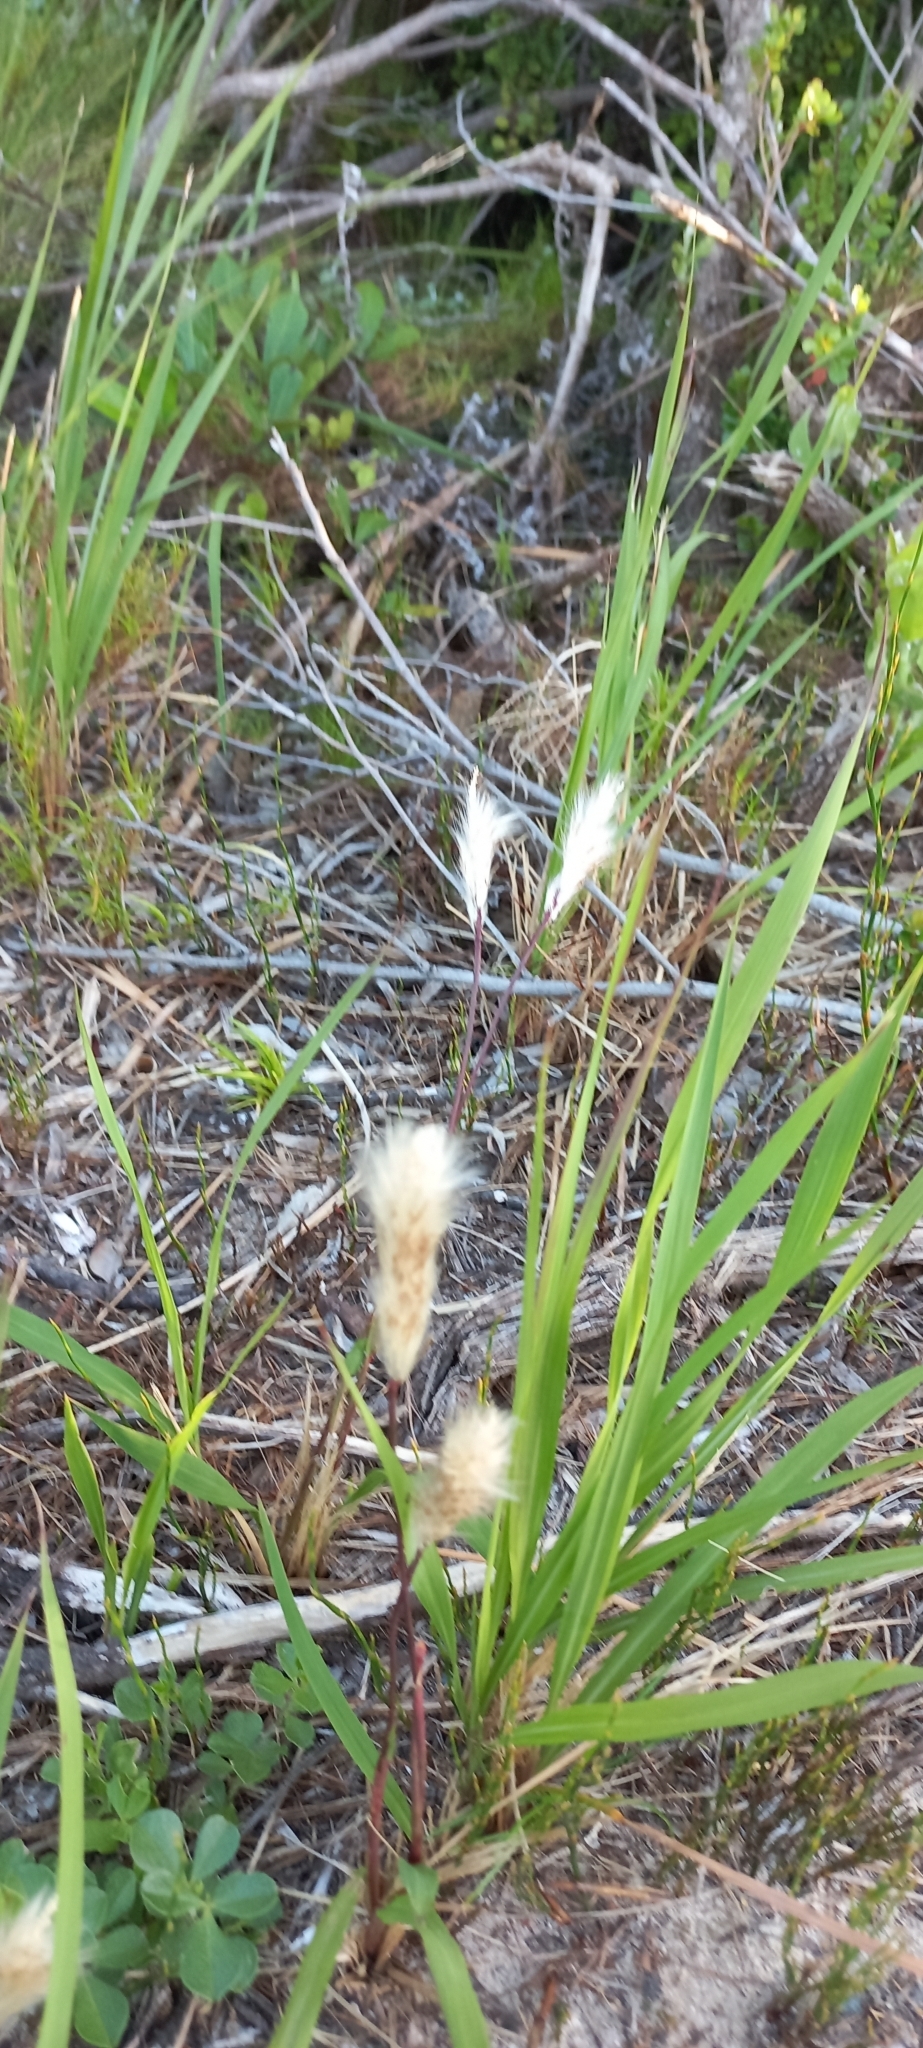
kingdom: Plantae
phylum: Tracheophyta
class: Liliopsida
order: Poales
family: Poaceae
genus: Imperata
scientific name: Imperata cylindrica
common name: Cogongrass
